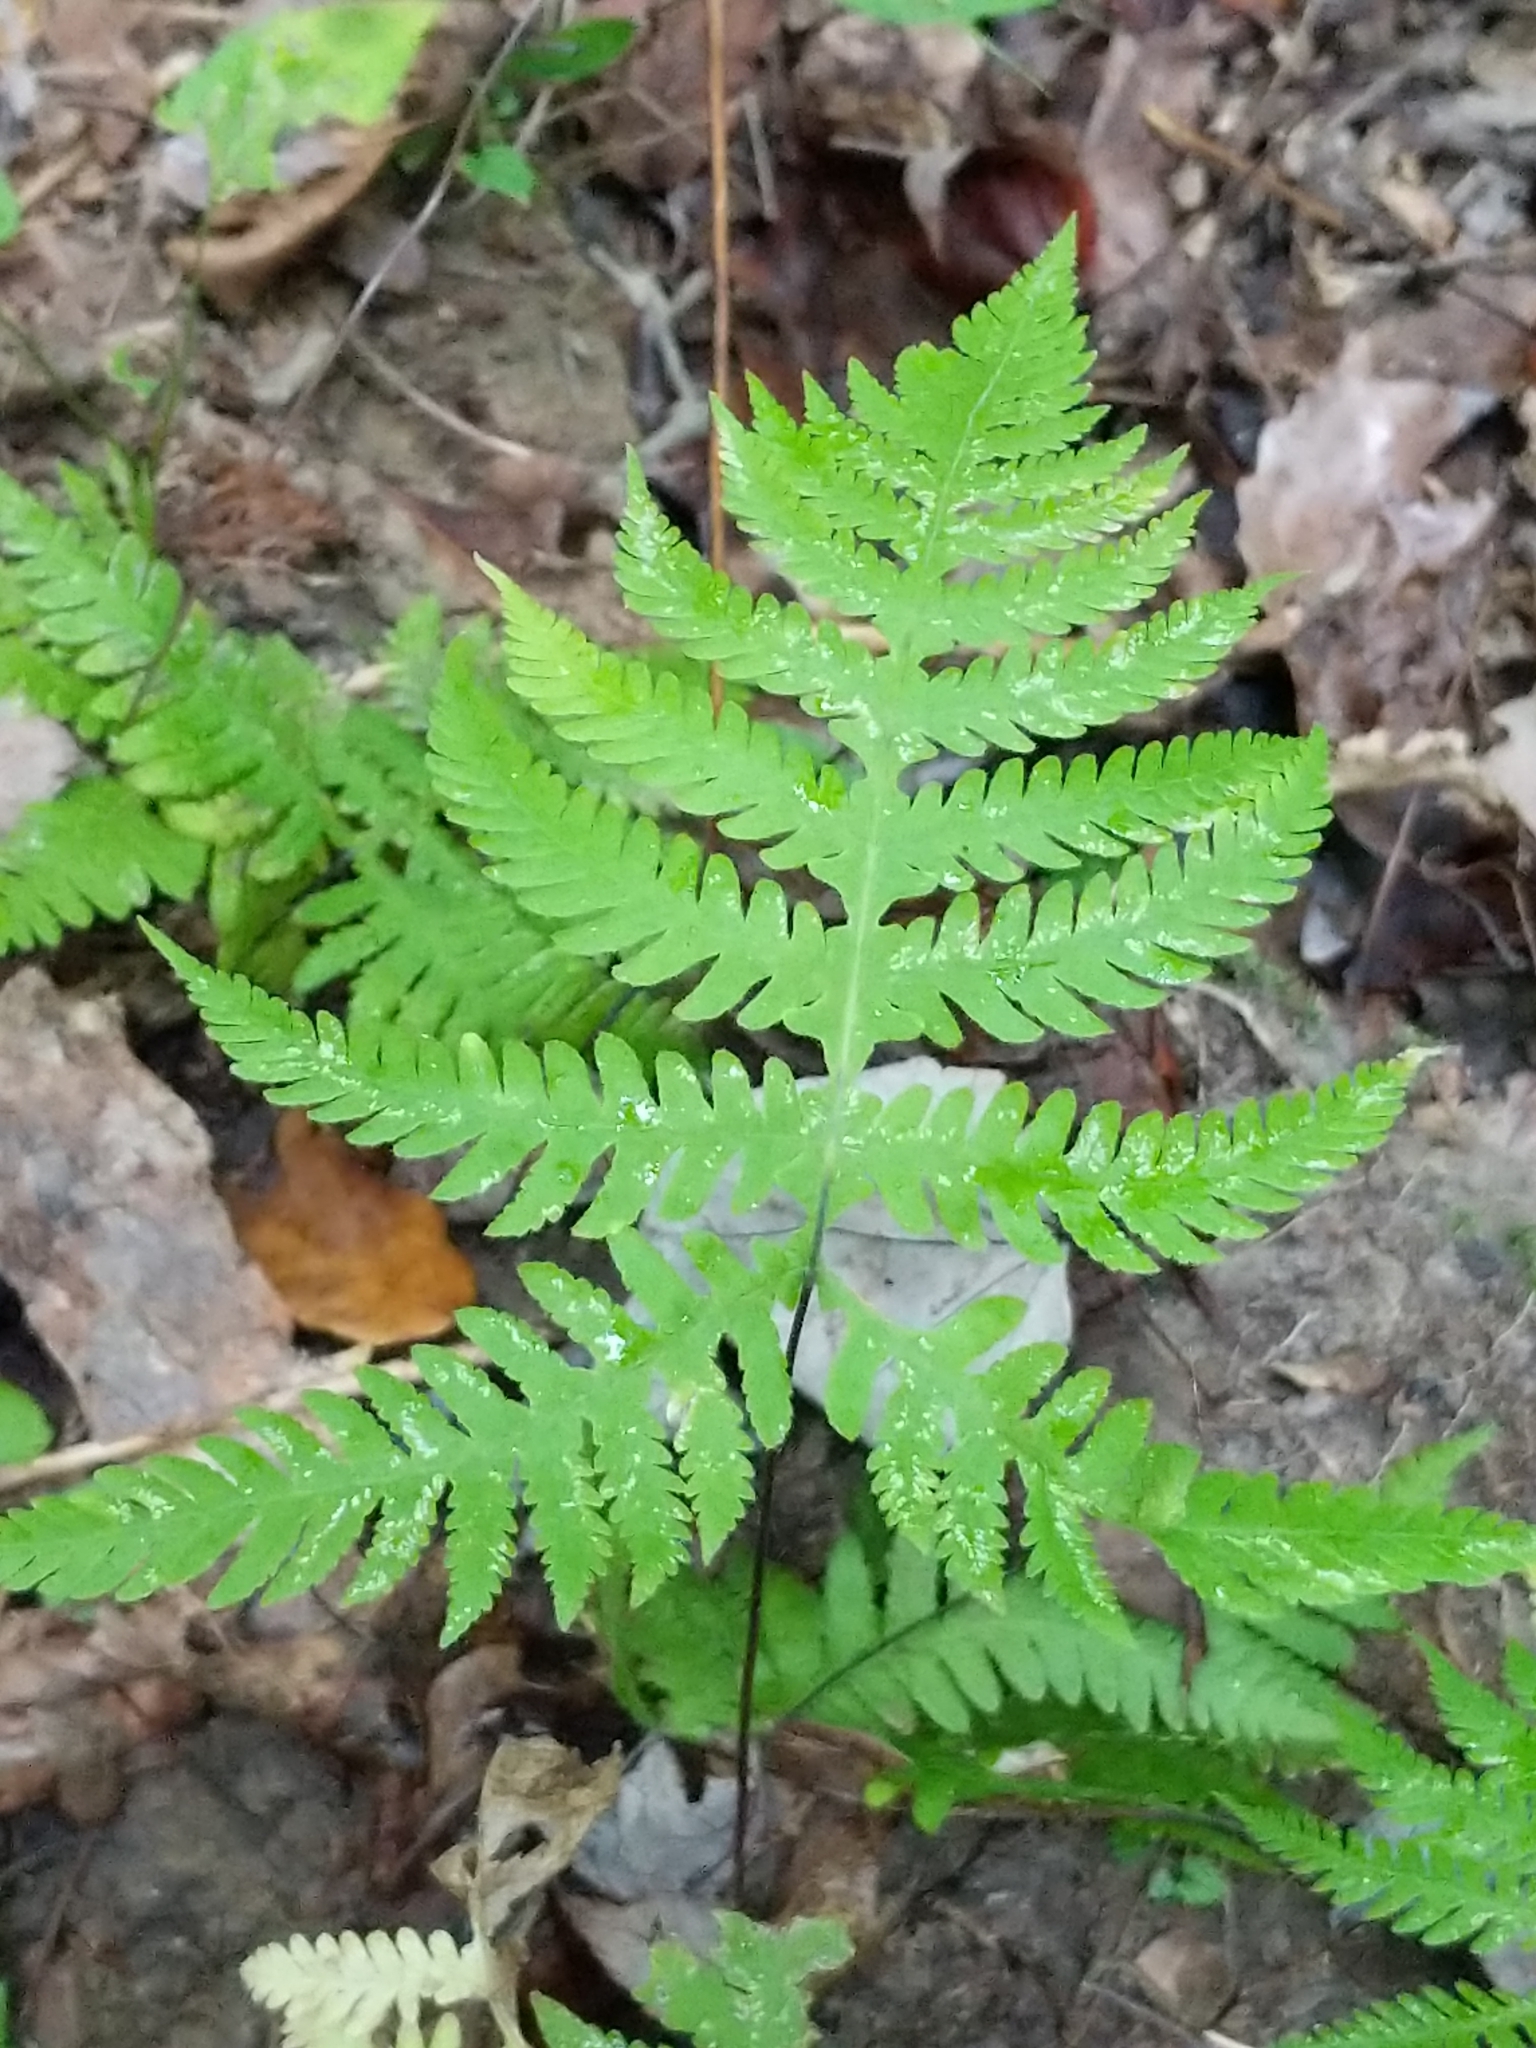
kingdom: Plantae
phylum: Tracheophyta
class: Polypodiopsida
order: Polypodiales
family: Thelypteridaceae
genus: Phegopteris
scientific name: Phegopteris hexagonoptera
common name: Broad beech fern
